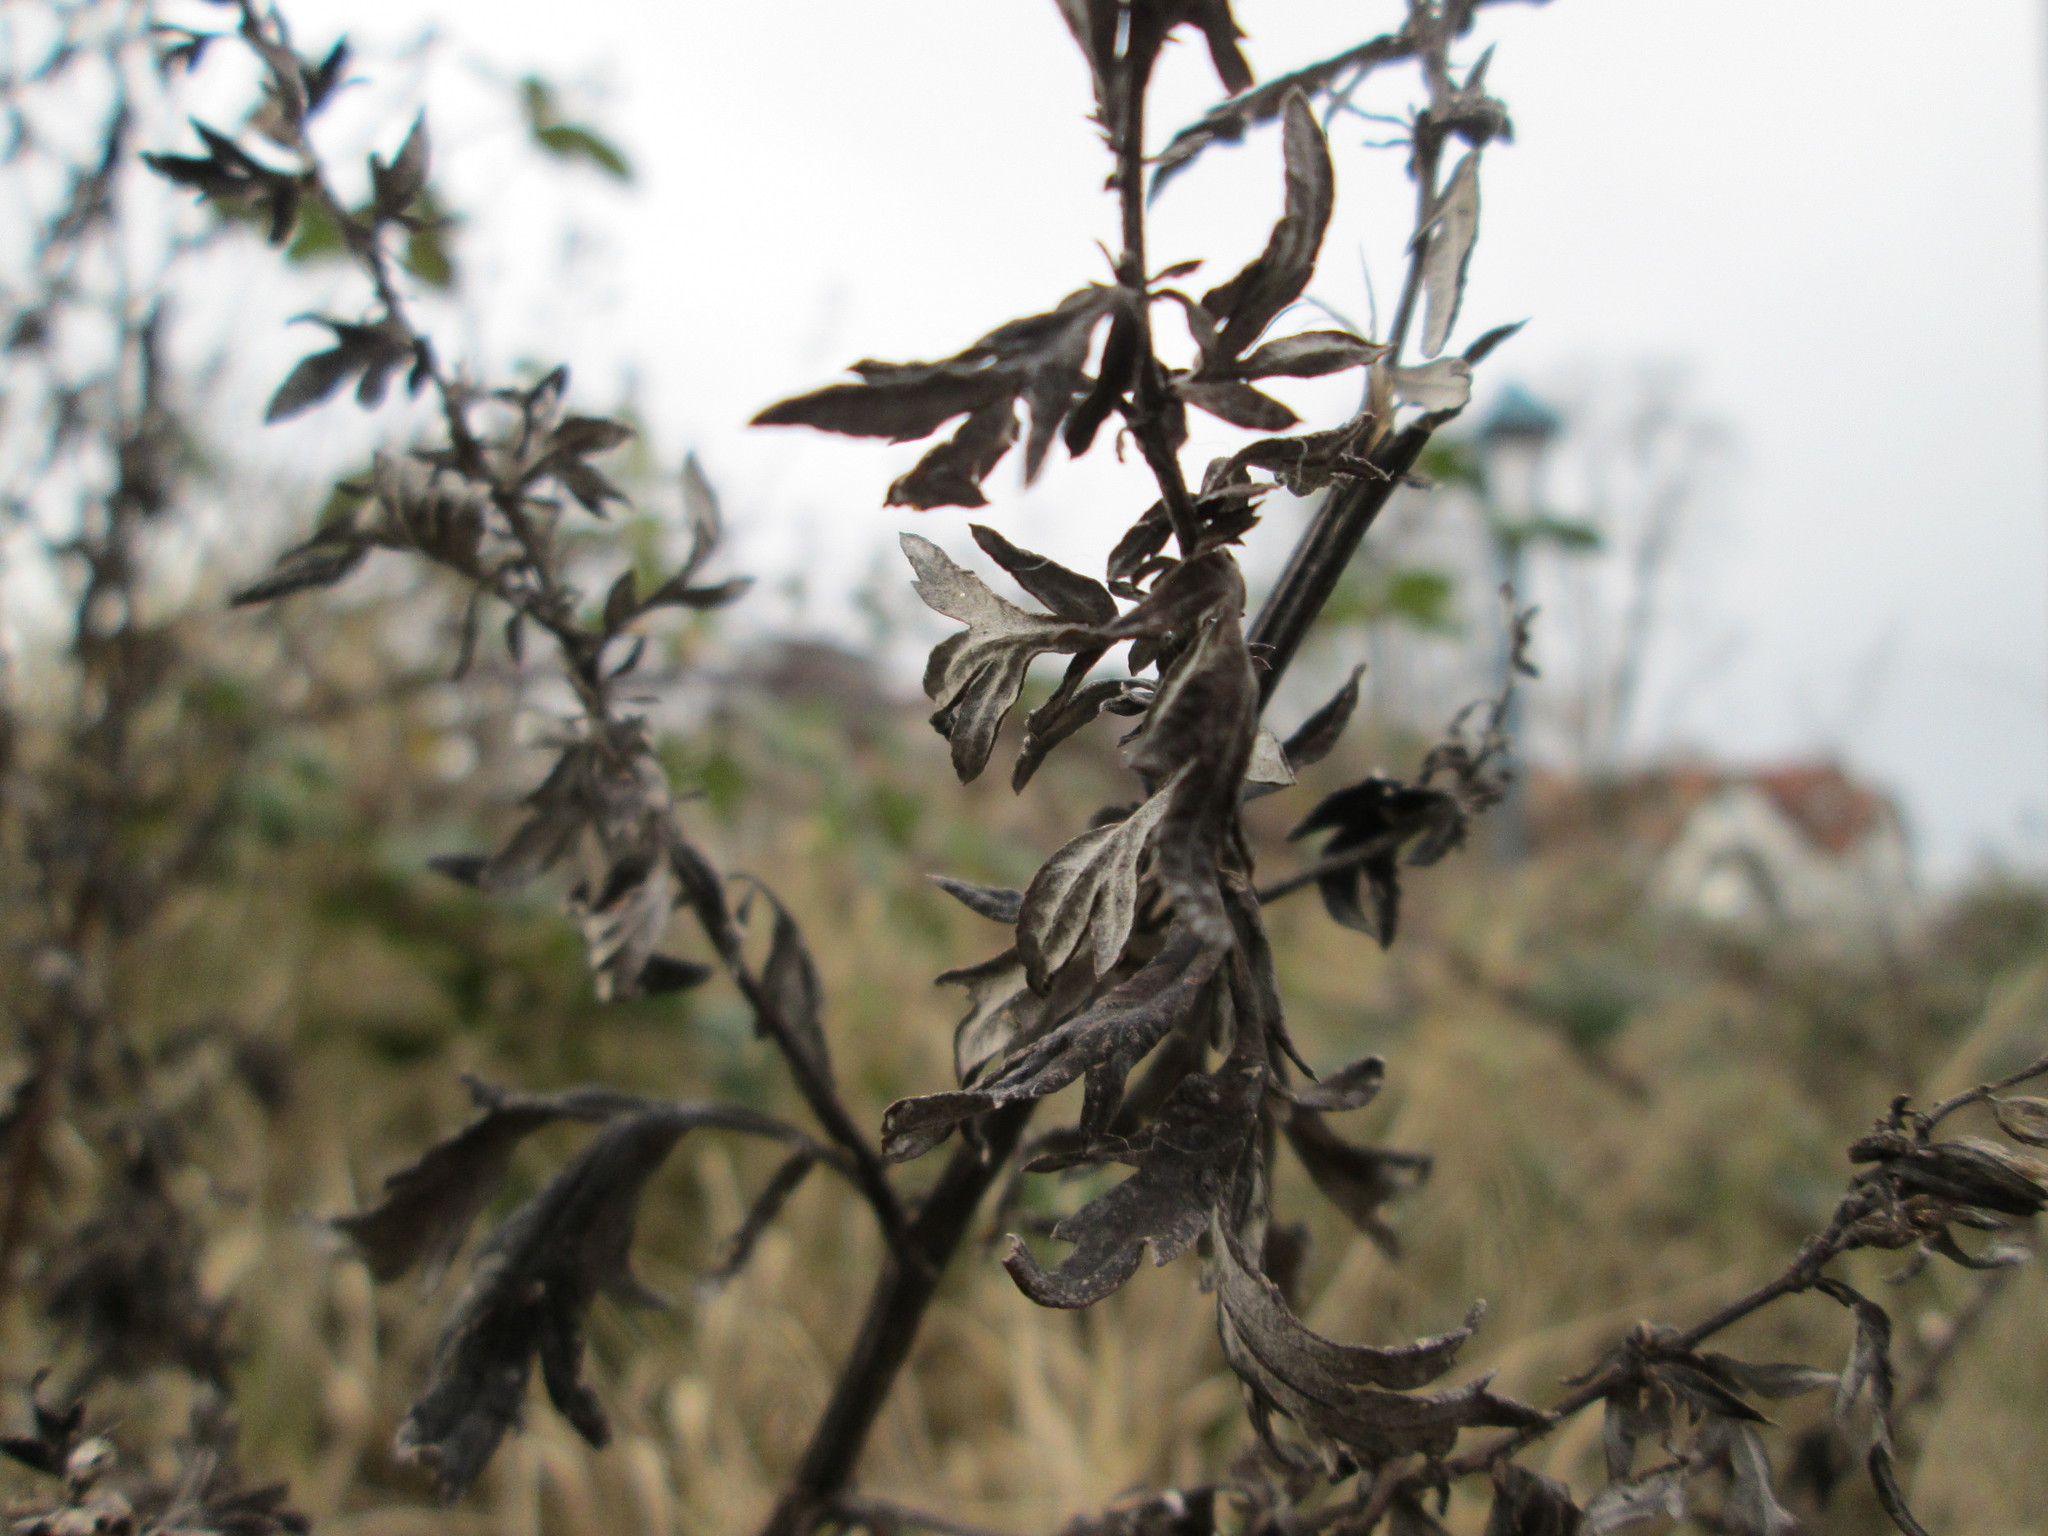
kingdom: Plantae
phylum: Tracheophyta
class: Magnoliopsida
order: Asterales
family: Asteraceae
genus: Artemisia
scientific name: Artemisia vulgaris
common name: Mugwort
